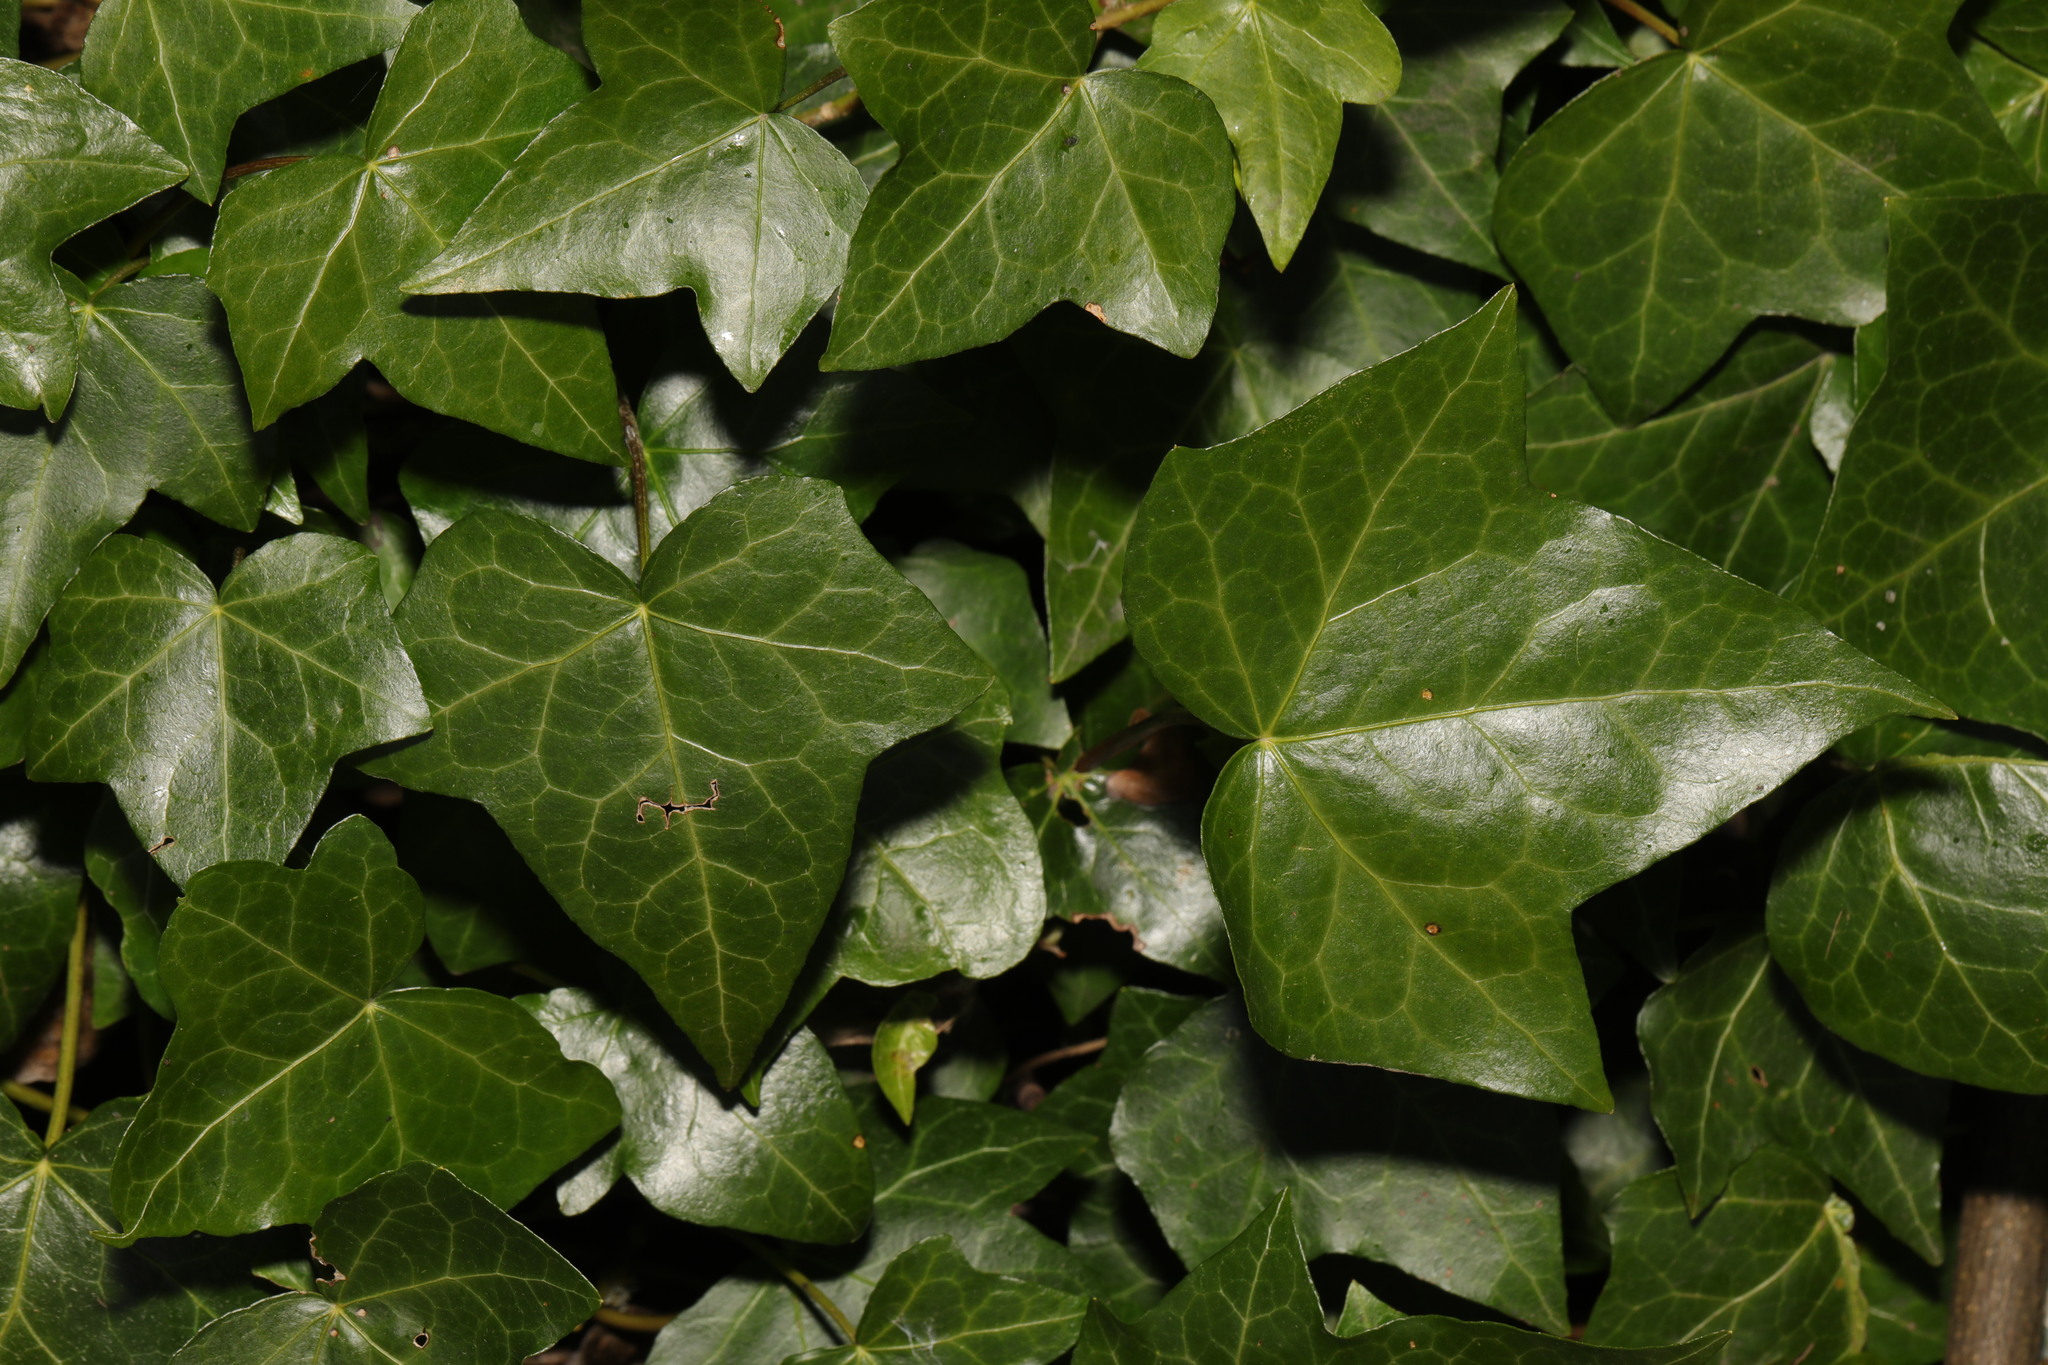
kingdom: Plantae
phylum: Tracheophyta
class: Magnoliopsida
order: Apiales
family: Araliaceae
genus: Hedera
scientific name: Hedera helix
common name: Ivy
